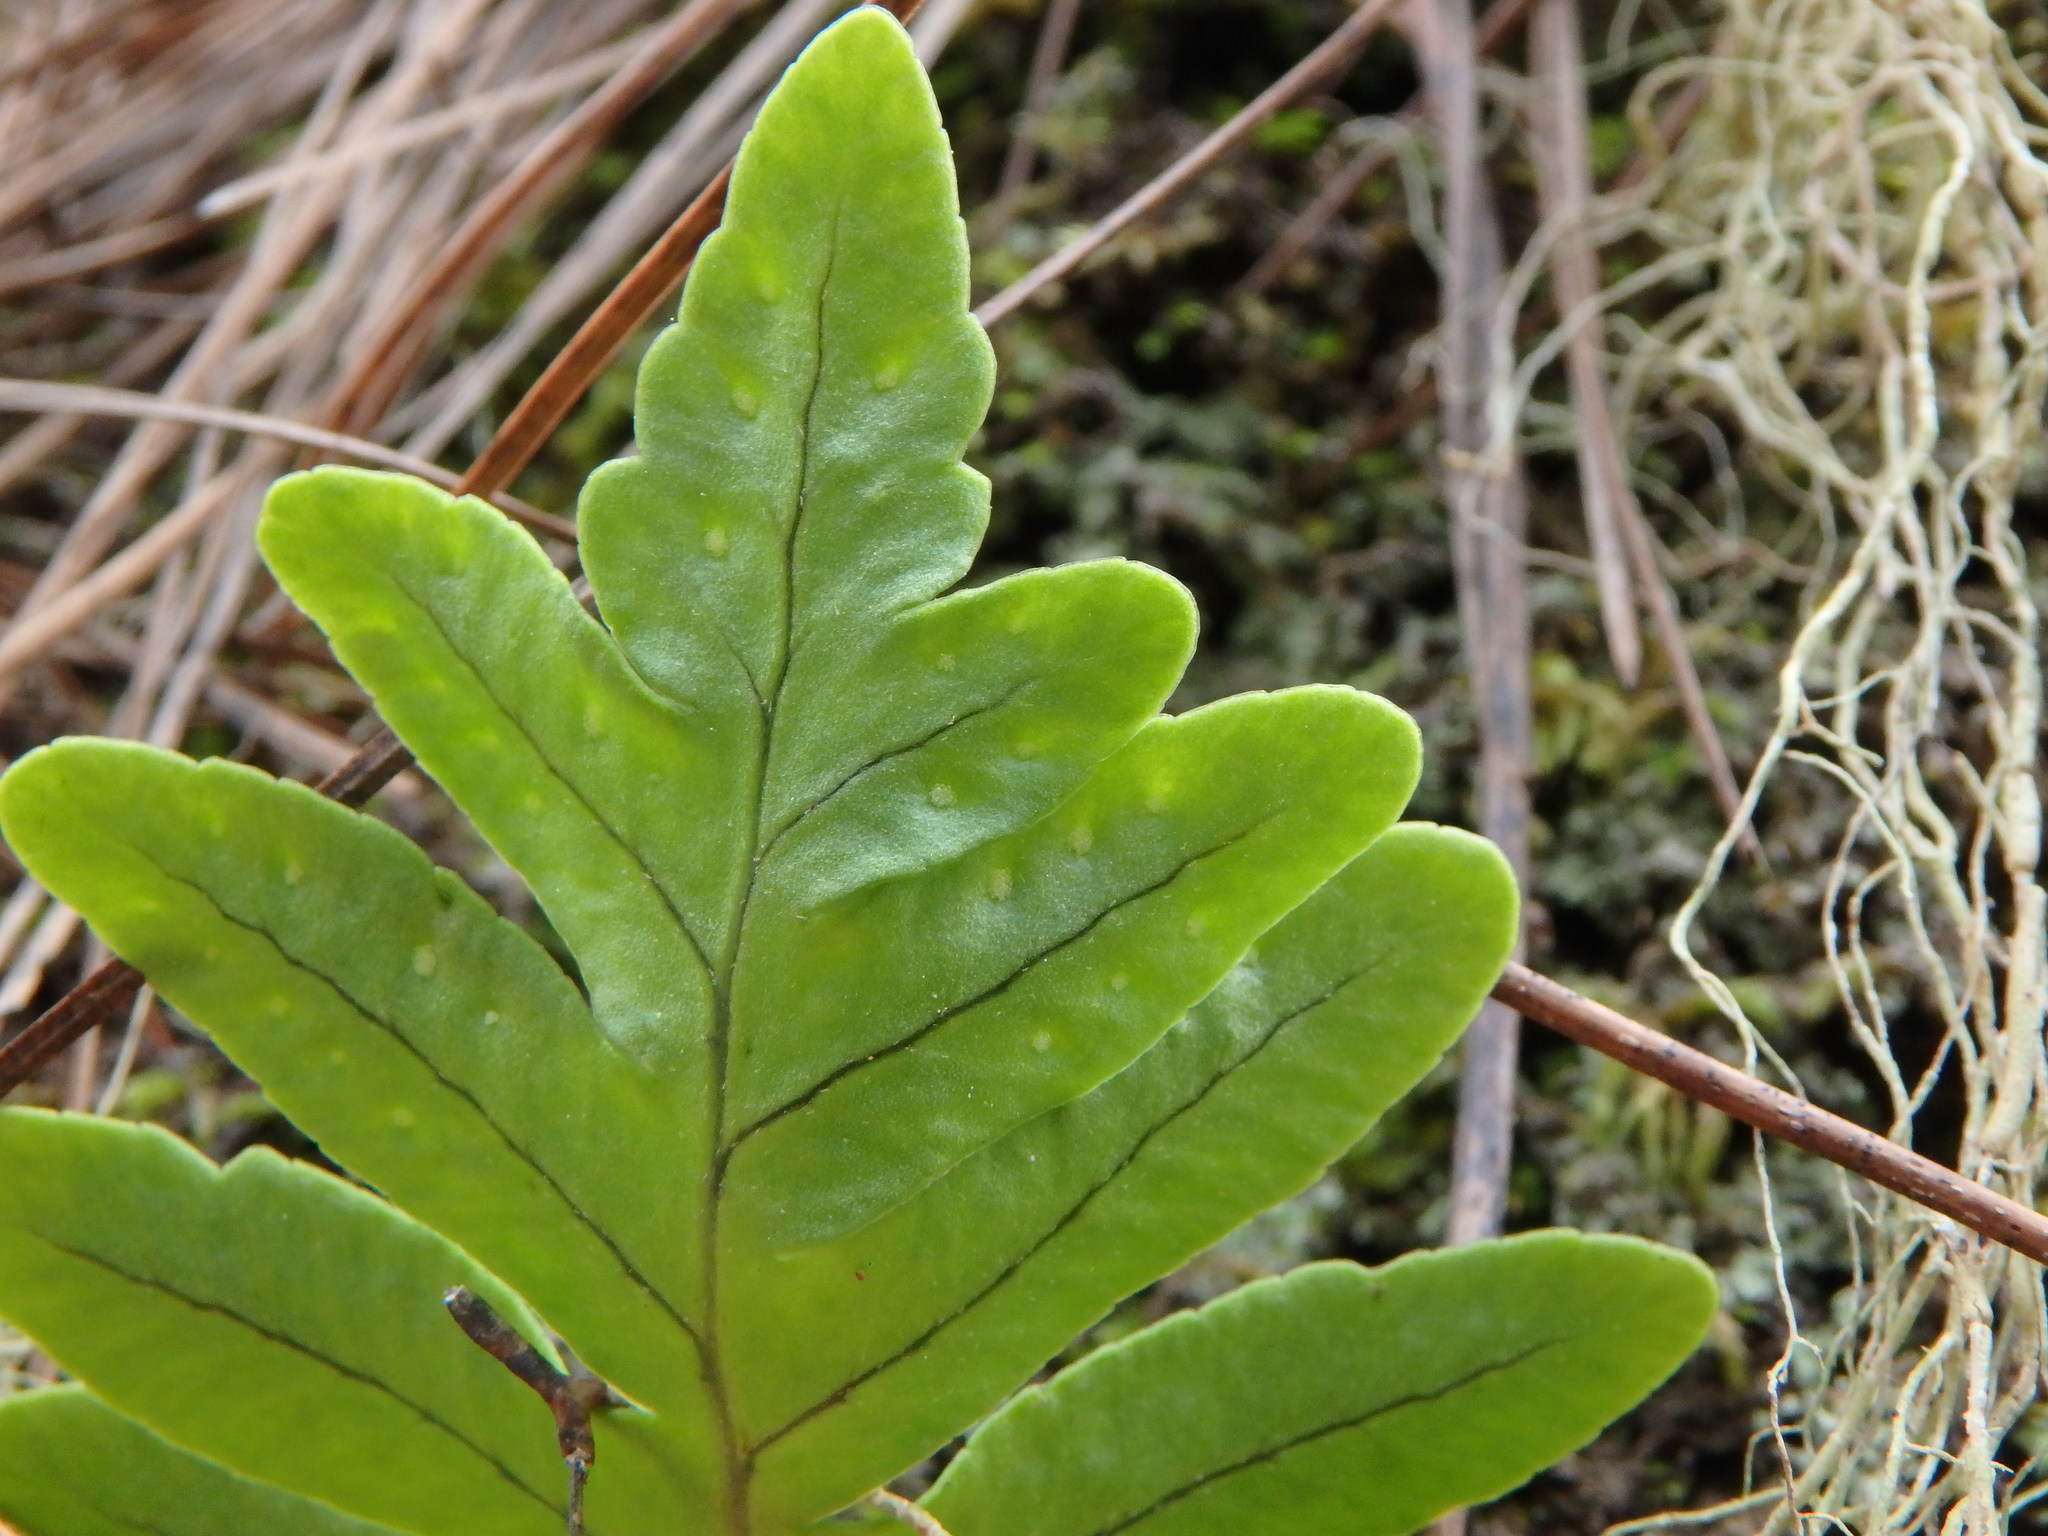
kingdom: Plantae
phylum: Tracheophyta
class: Polypodiopsida
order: Polypodiales
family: Polypodiaceae
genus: Polypodium
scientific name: Polypodium macaronesicum
